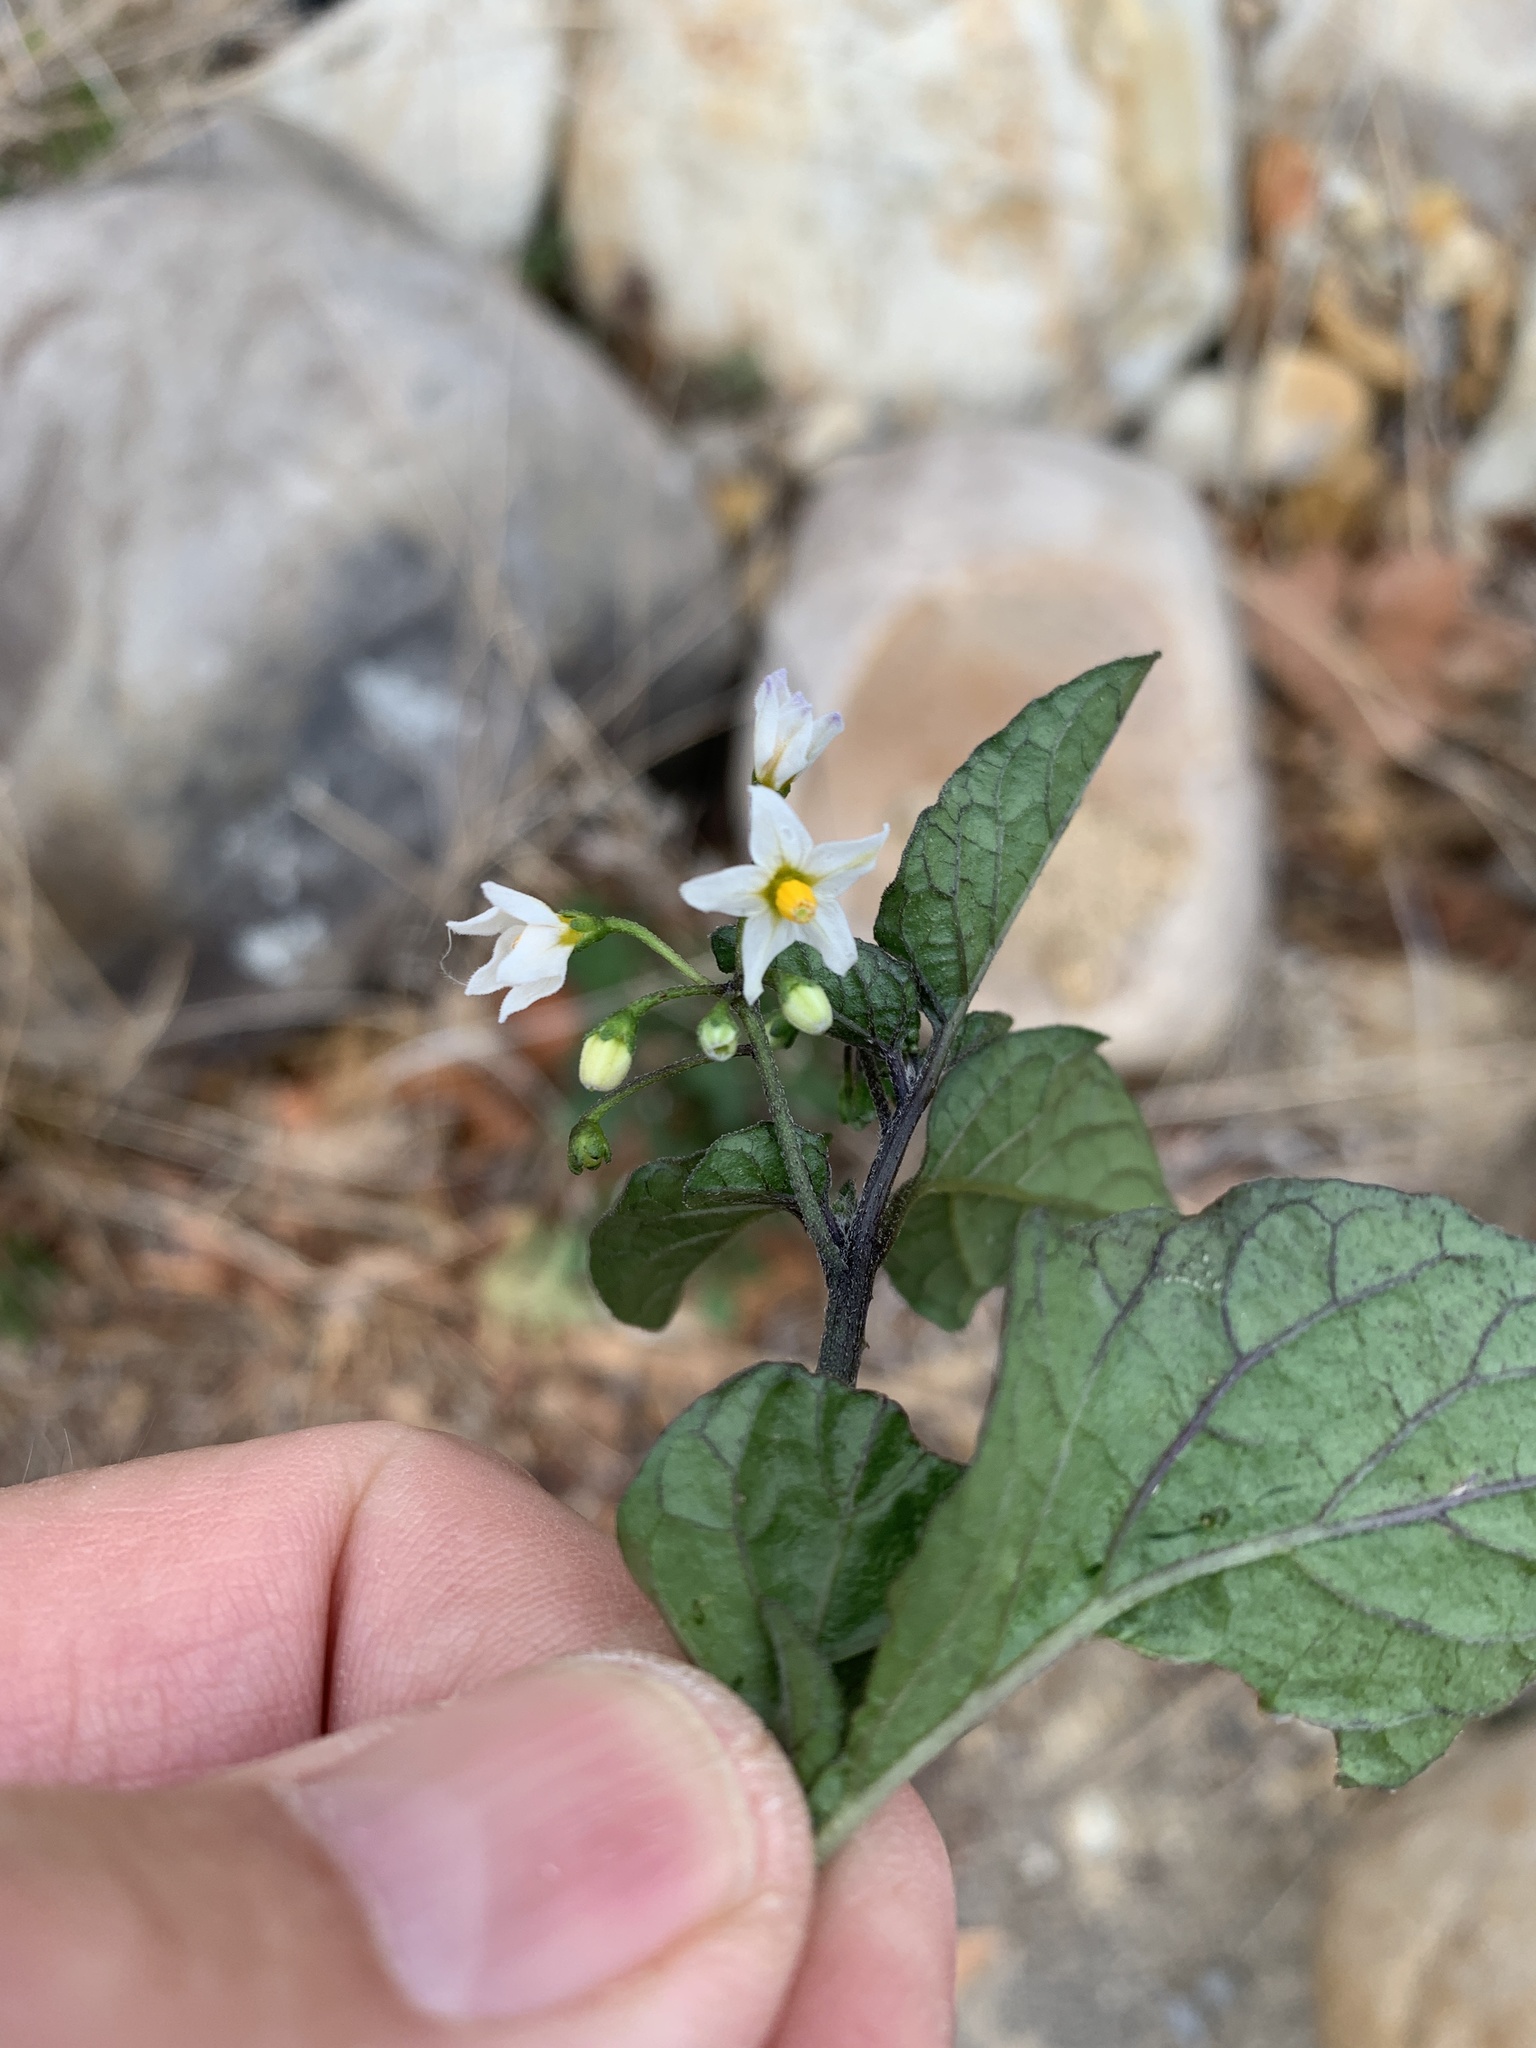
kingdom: Plantae
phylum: Tracheophyta
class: Magnoliopsida
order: Solanales
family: Solanaceae
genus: Solanum
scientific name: Solanum nigrum
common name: Black nightshade
